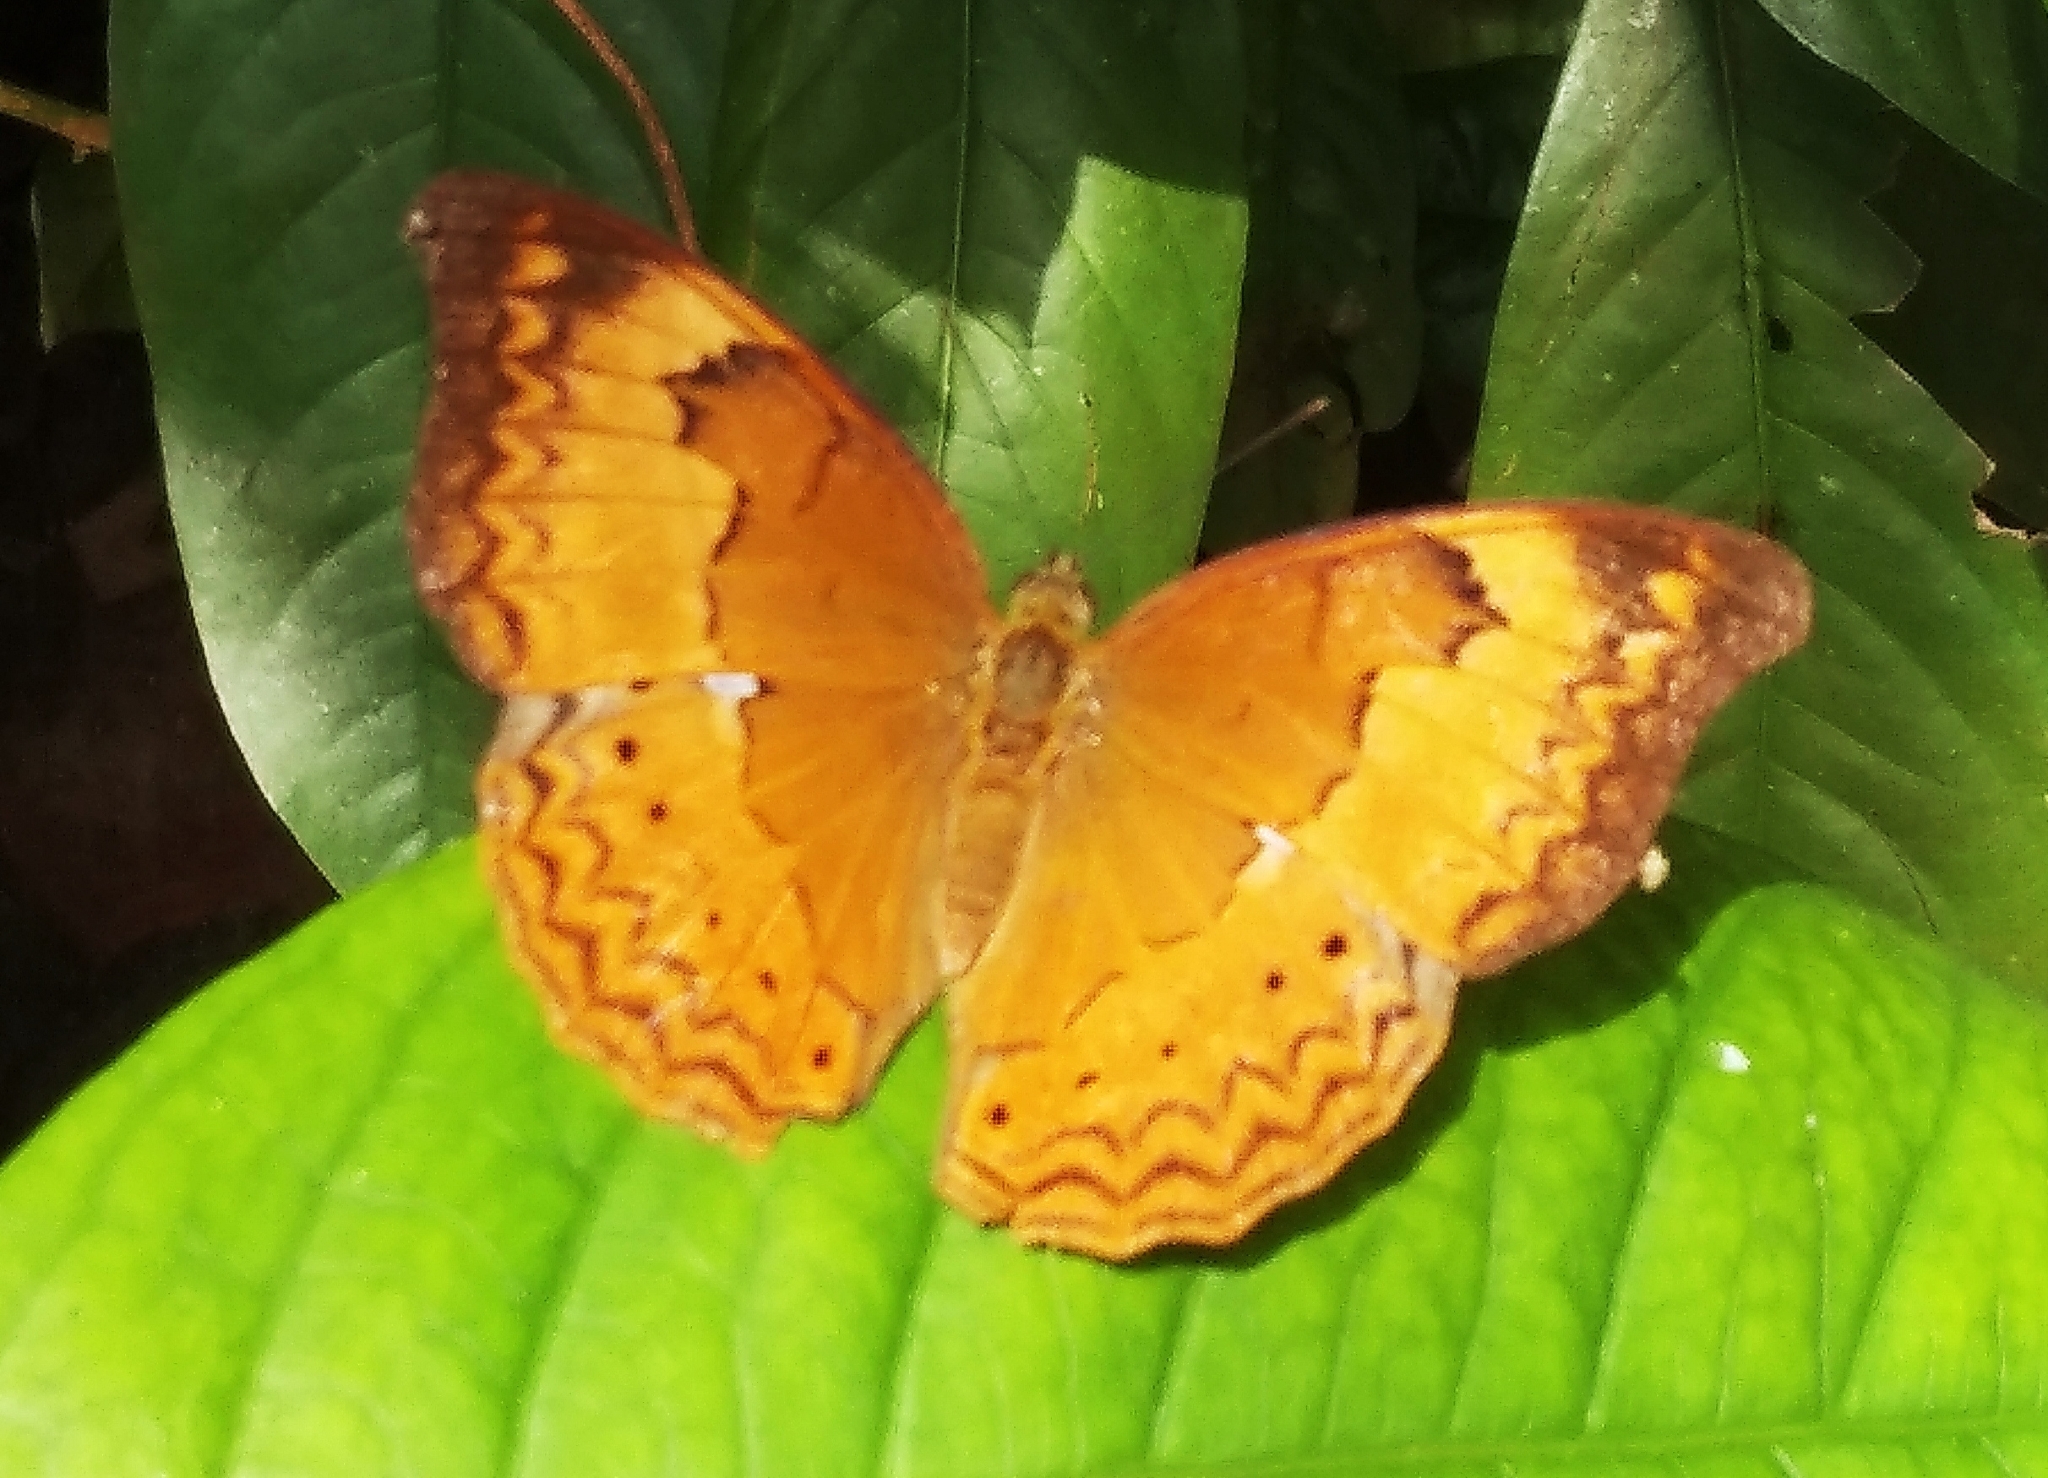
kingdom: Animalia
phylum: Arthropoda
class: Insecta
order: Lepidoptera
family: Nymphalidae
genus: Cirrochroa
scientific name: Cirrochroa thais
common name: Tamil yeoman
